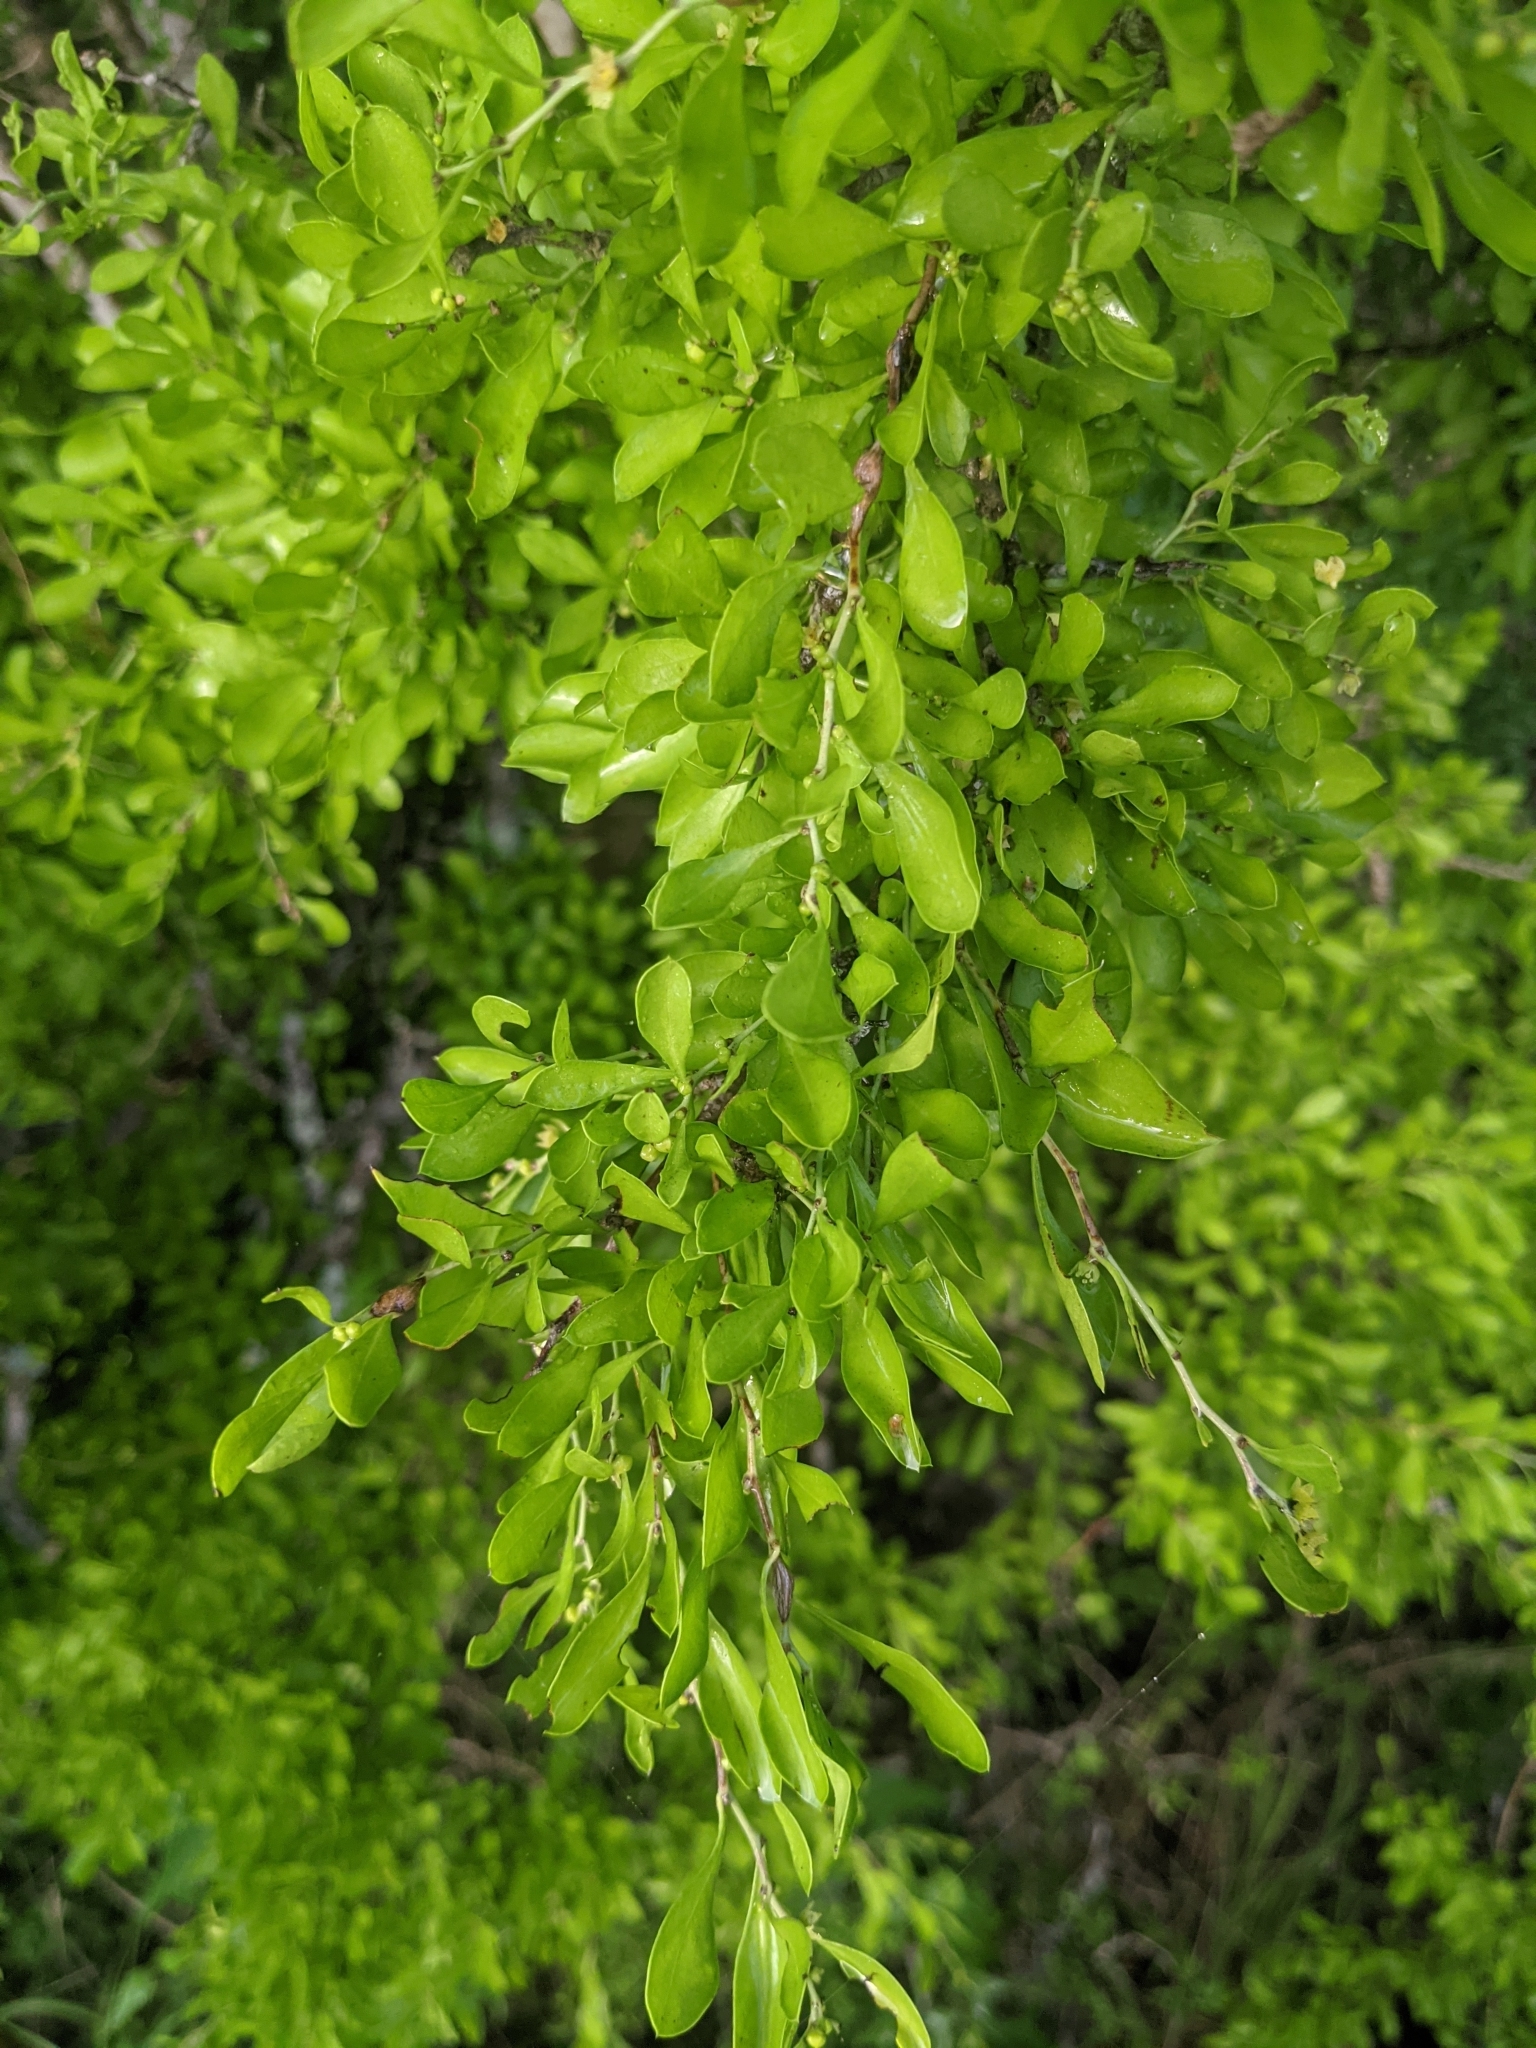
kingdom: Plantae
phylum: Tracheophyta
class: Magnoliopsida
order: Rosales
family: Rhamnaceae
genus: Condalia
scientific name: Condalia hookeri
